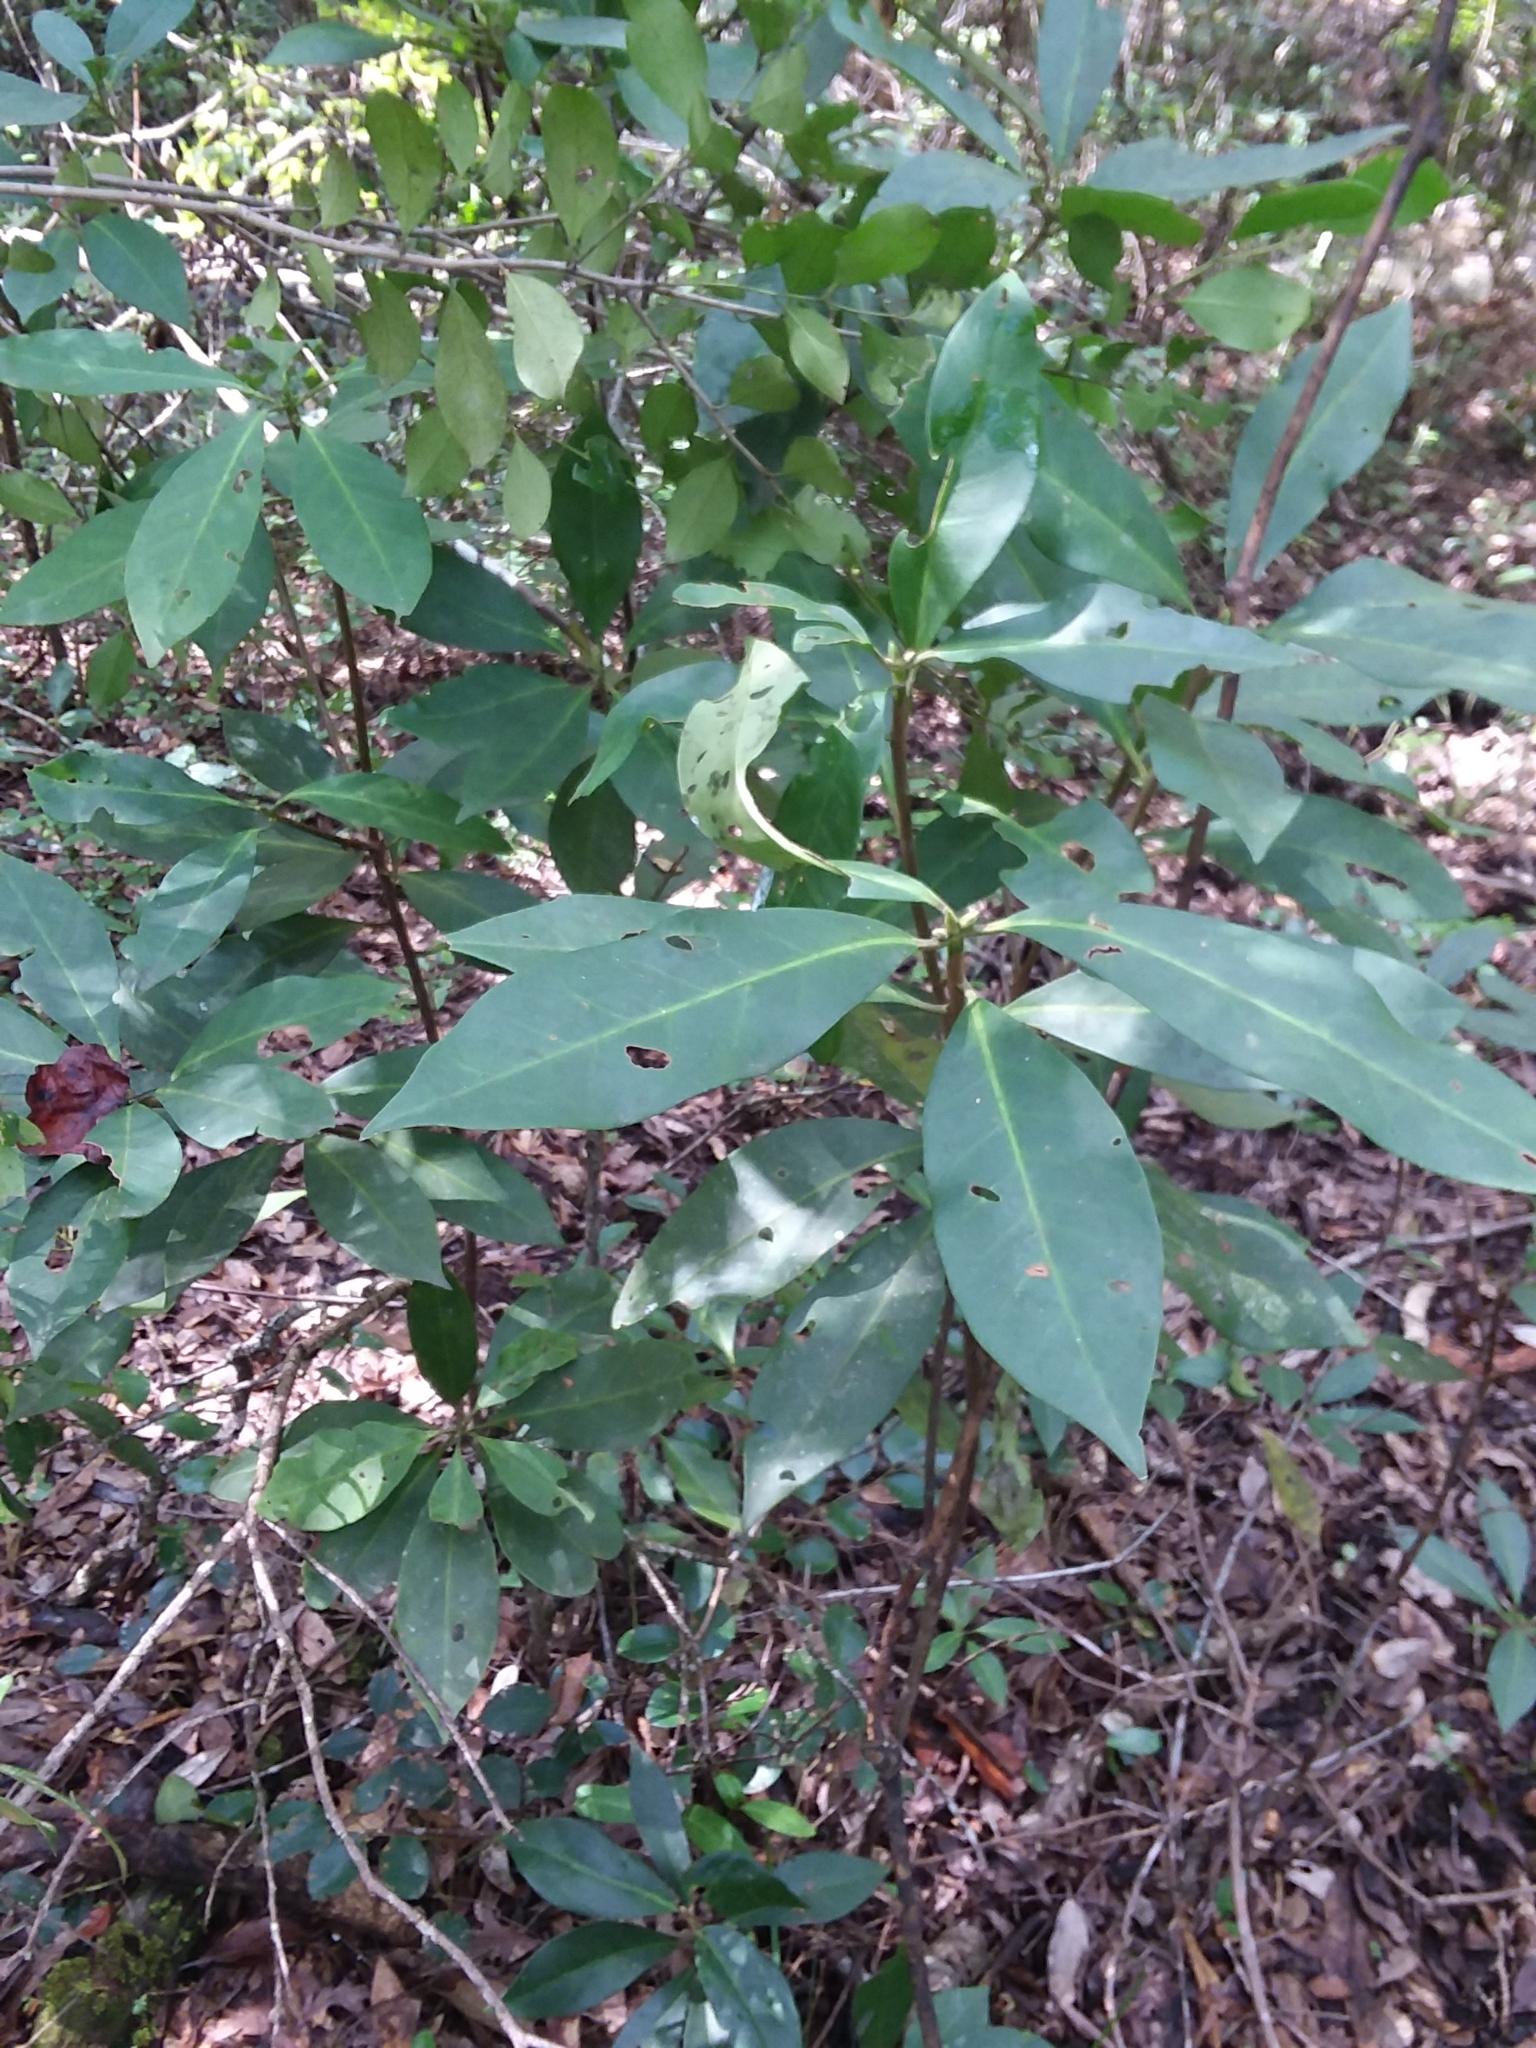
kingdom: Plantae
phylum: Tracheophyta
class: Magnoliopsida
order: Austrobaileyales
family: Schisandraceae
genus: Illicium
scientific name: Illicium floridanum
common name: Florida anisetree
